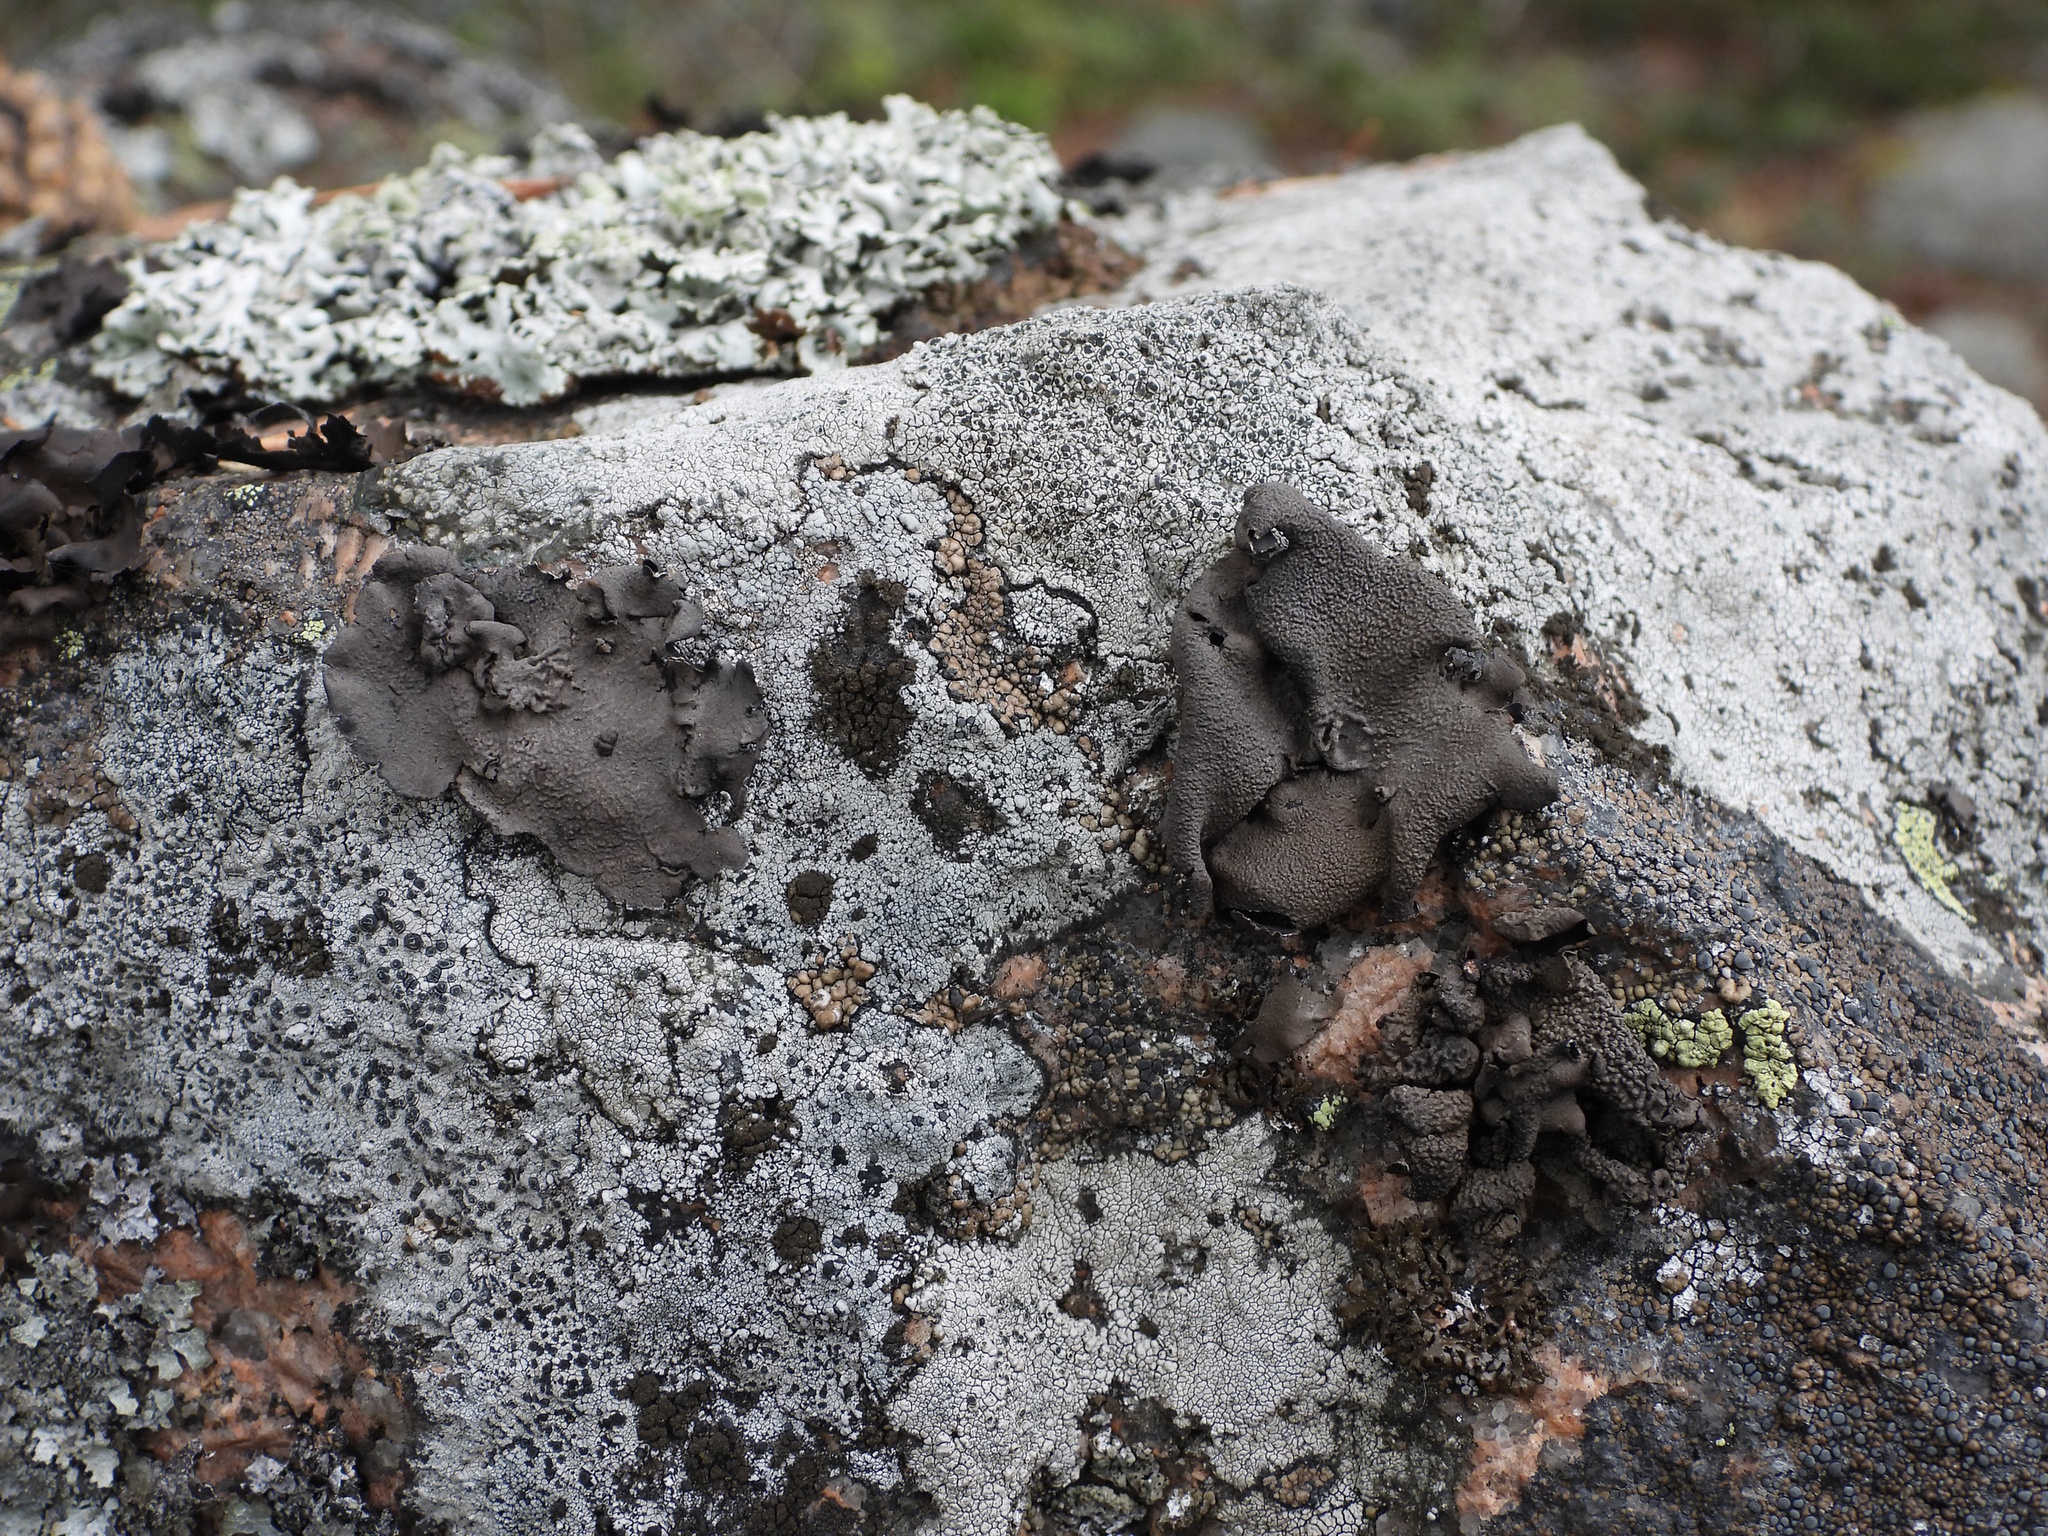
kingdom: Fungi
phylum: Ascomycota
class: Lecanoromycetes
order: Umbilicariales
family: Umbilicariaceae
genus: Umbilicaria
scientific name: Umbilicaria nylanderiana
